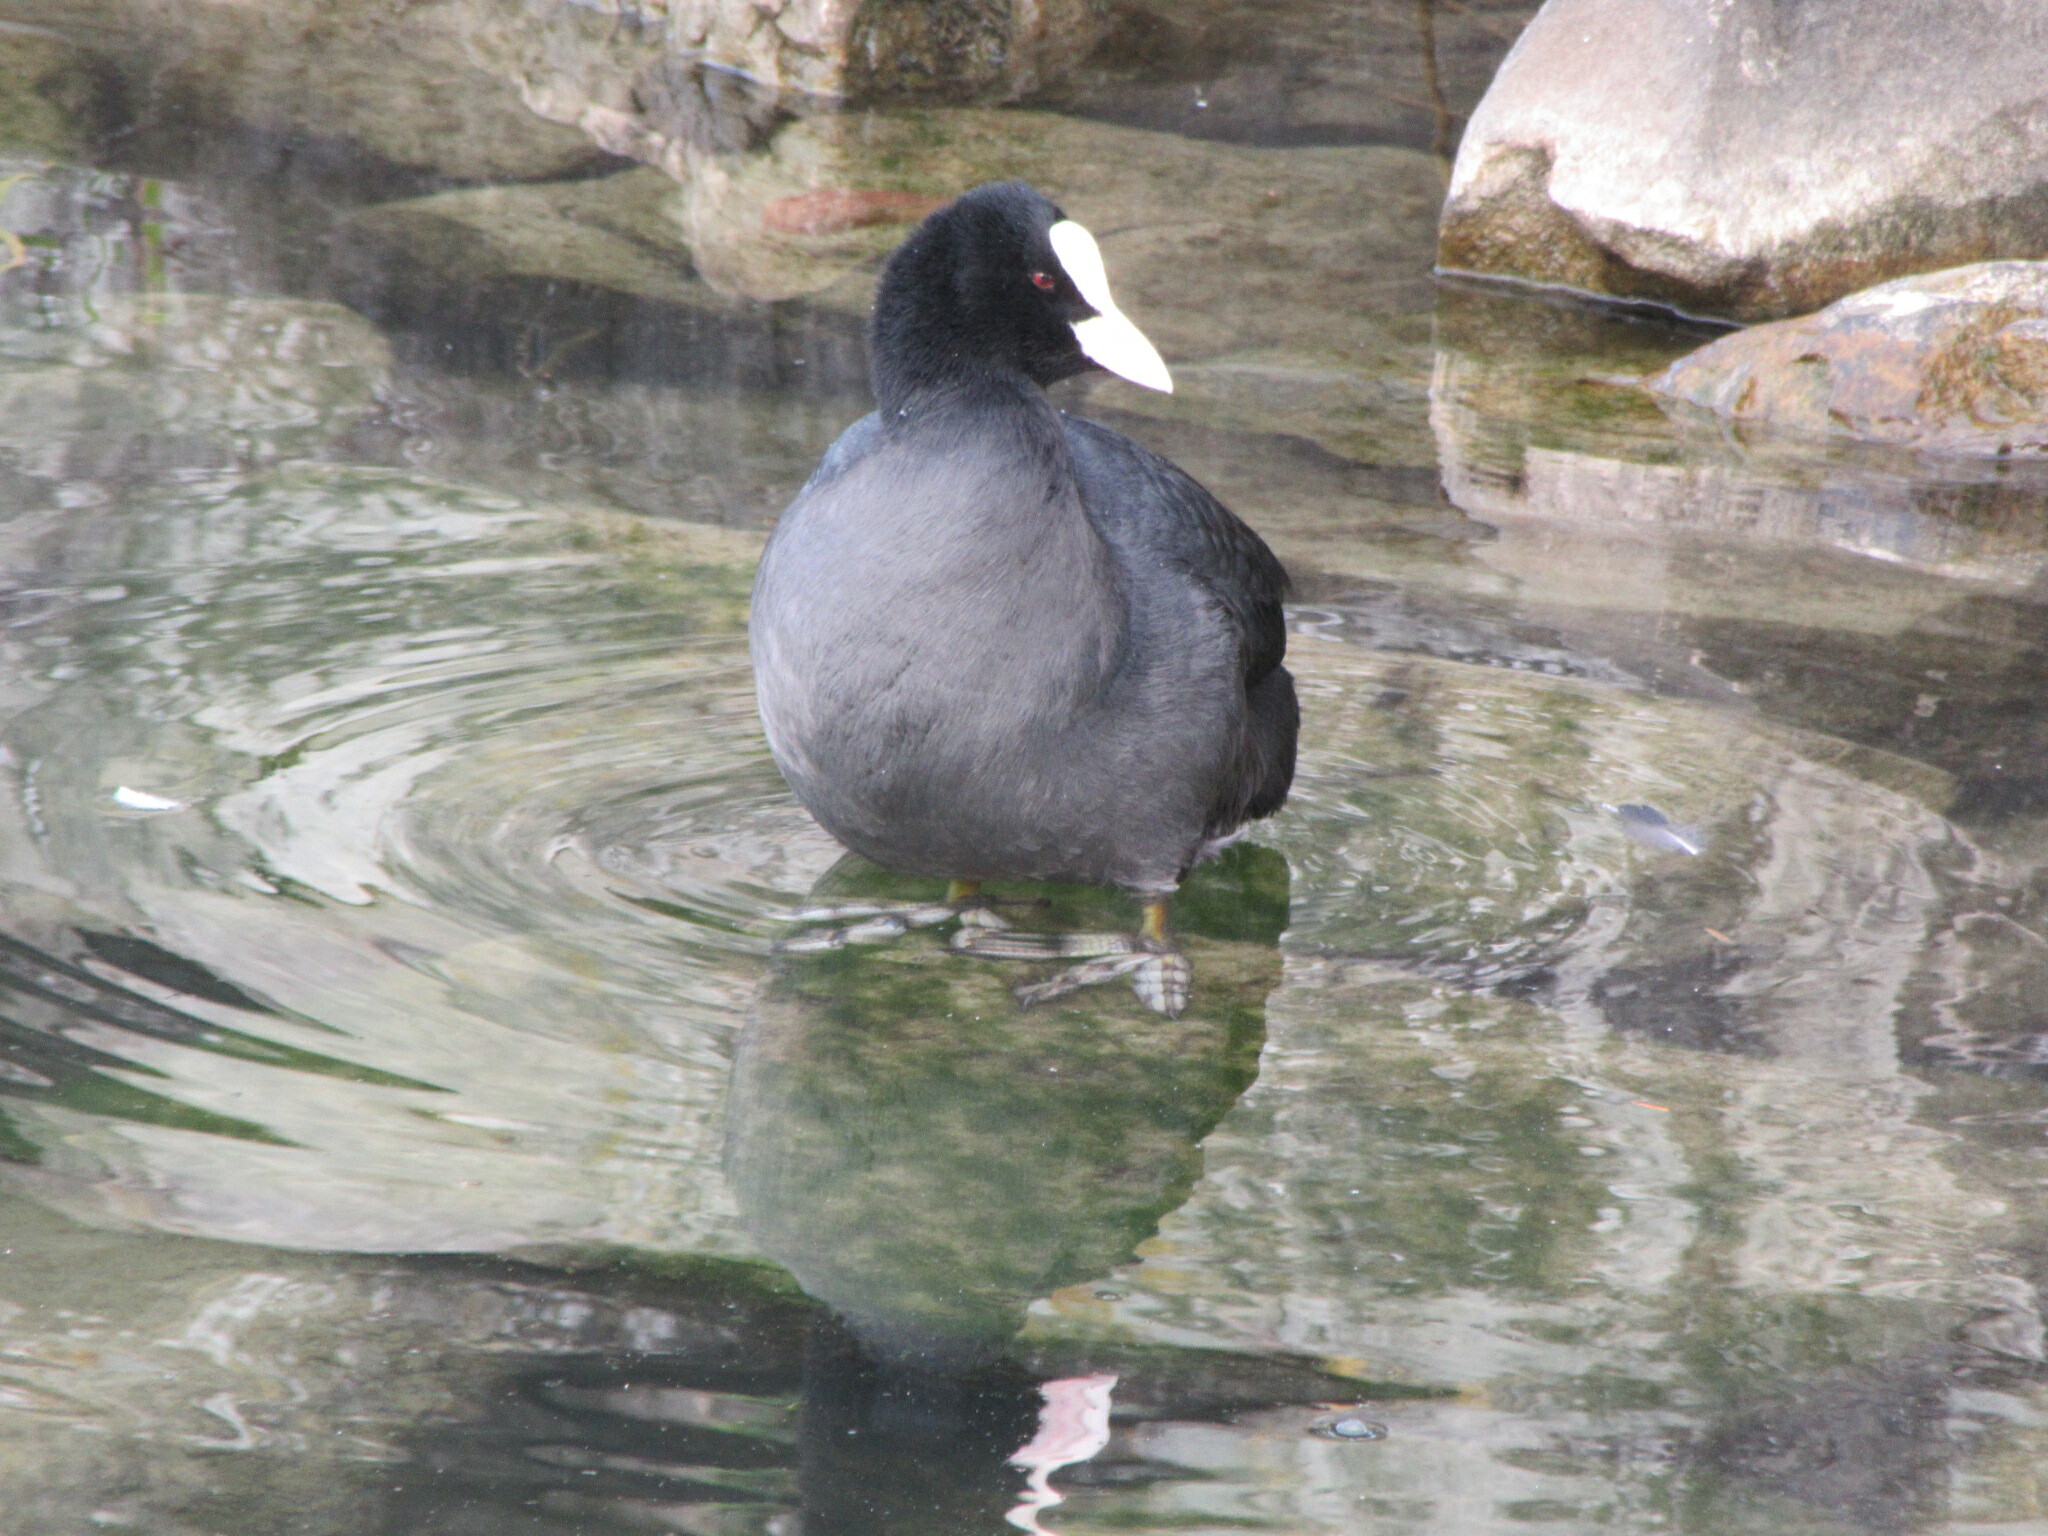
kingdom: Animalia
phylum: Chordata
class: Aves
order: Gruiformes
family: Rallidae
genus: Fulica
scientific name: Fulica atra
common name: Eurasian coot
